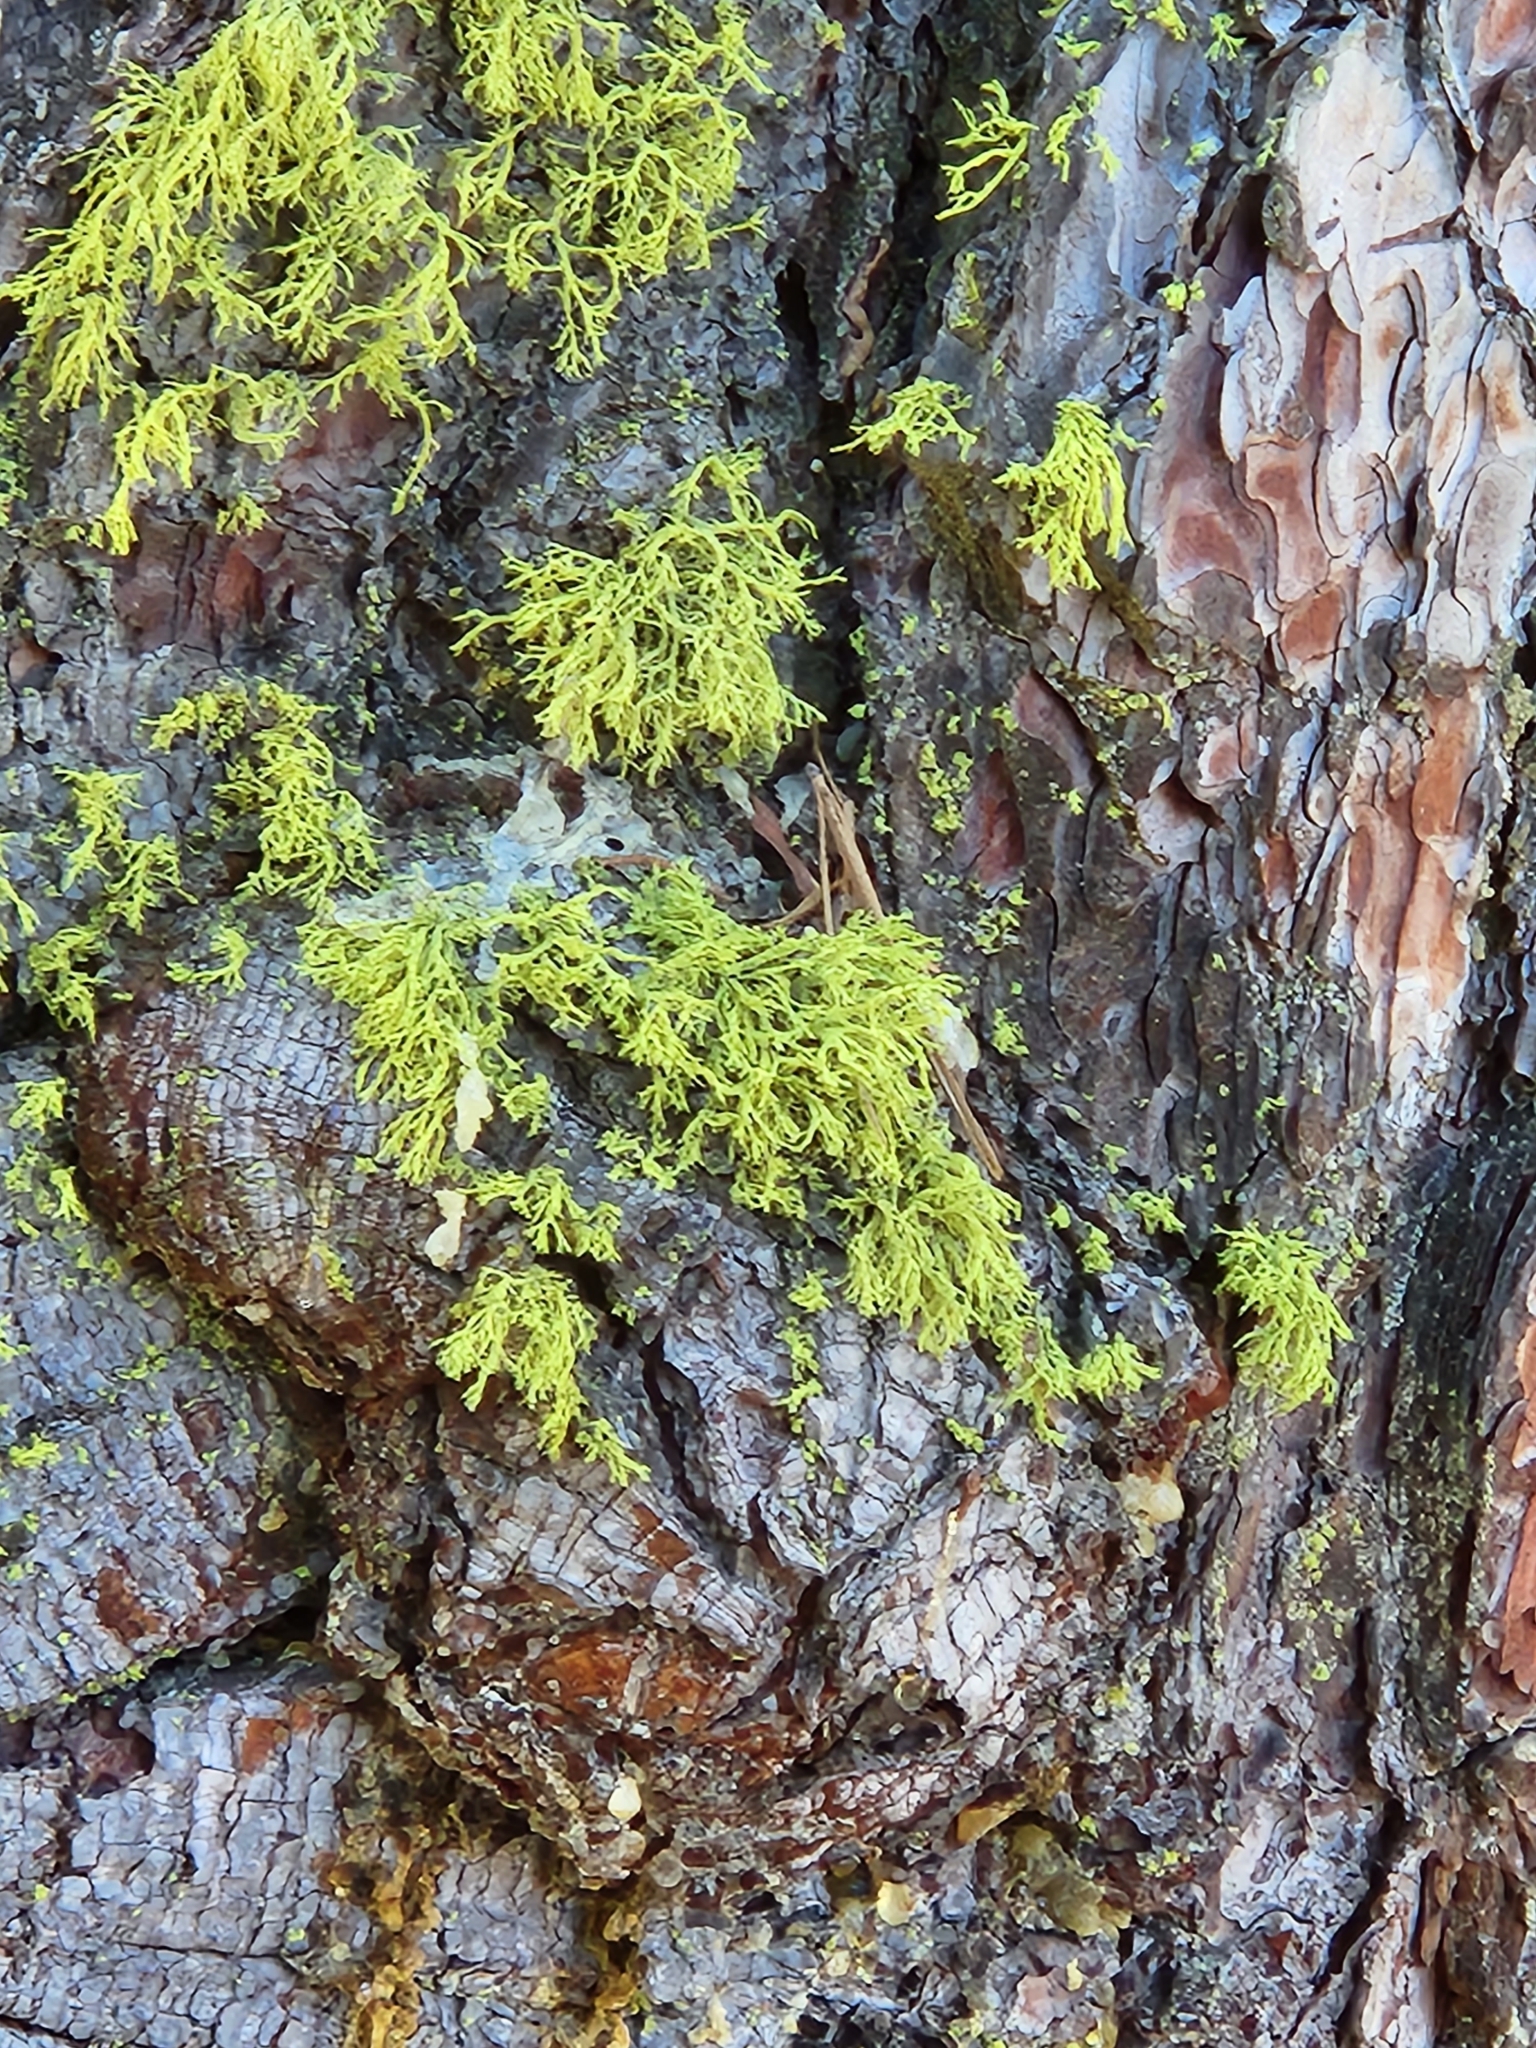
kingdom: Fungi
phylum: Ascomycota
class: Lecanoromycetes
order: Lecanorales
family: Parmeliaceae
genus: Letharia
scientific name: Letharia vulpina
